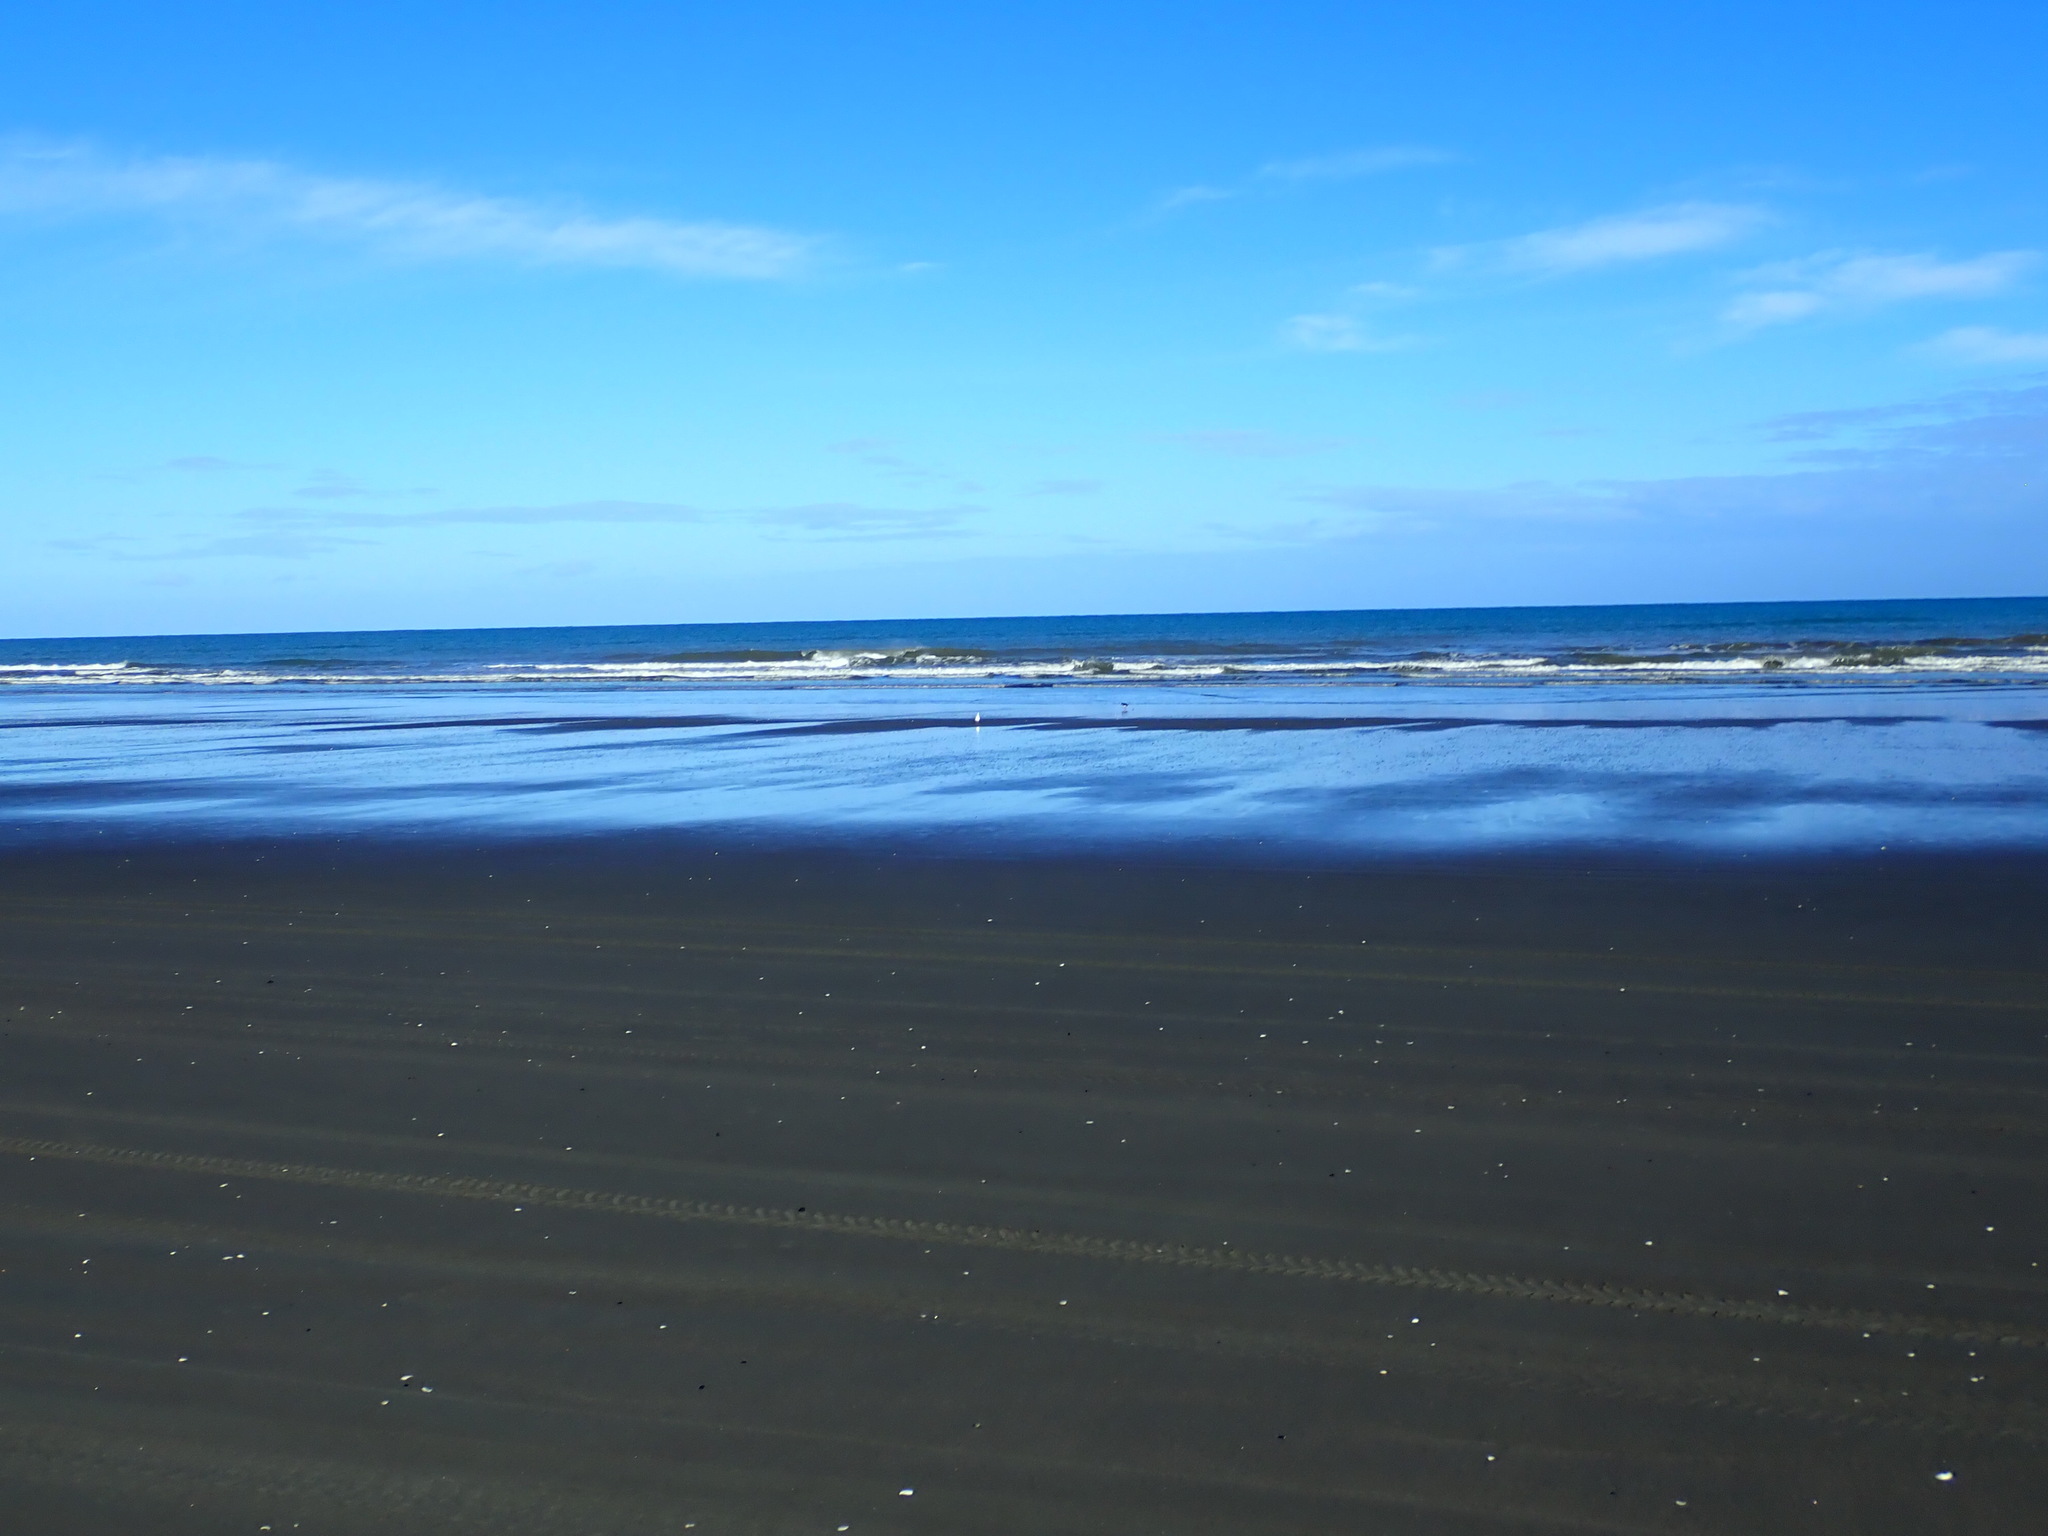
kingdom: Animalia
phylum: Chordata
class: Aves
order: Charadriiformes
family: Haematopodidae
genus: Haematopus
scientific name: Haematopus finschi
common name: South island oystercatcher
